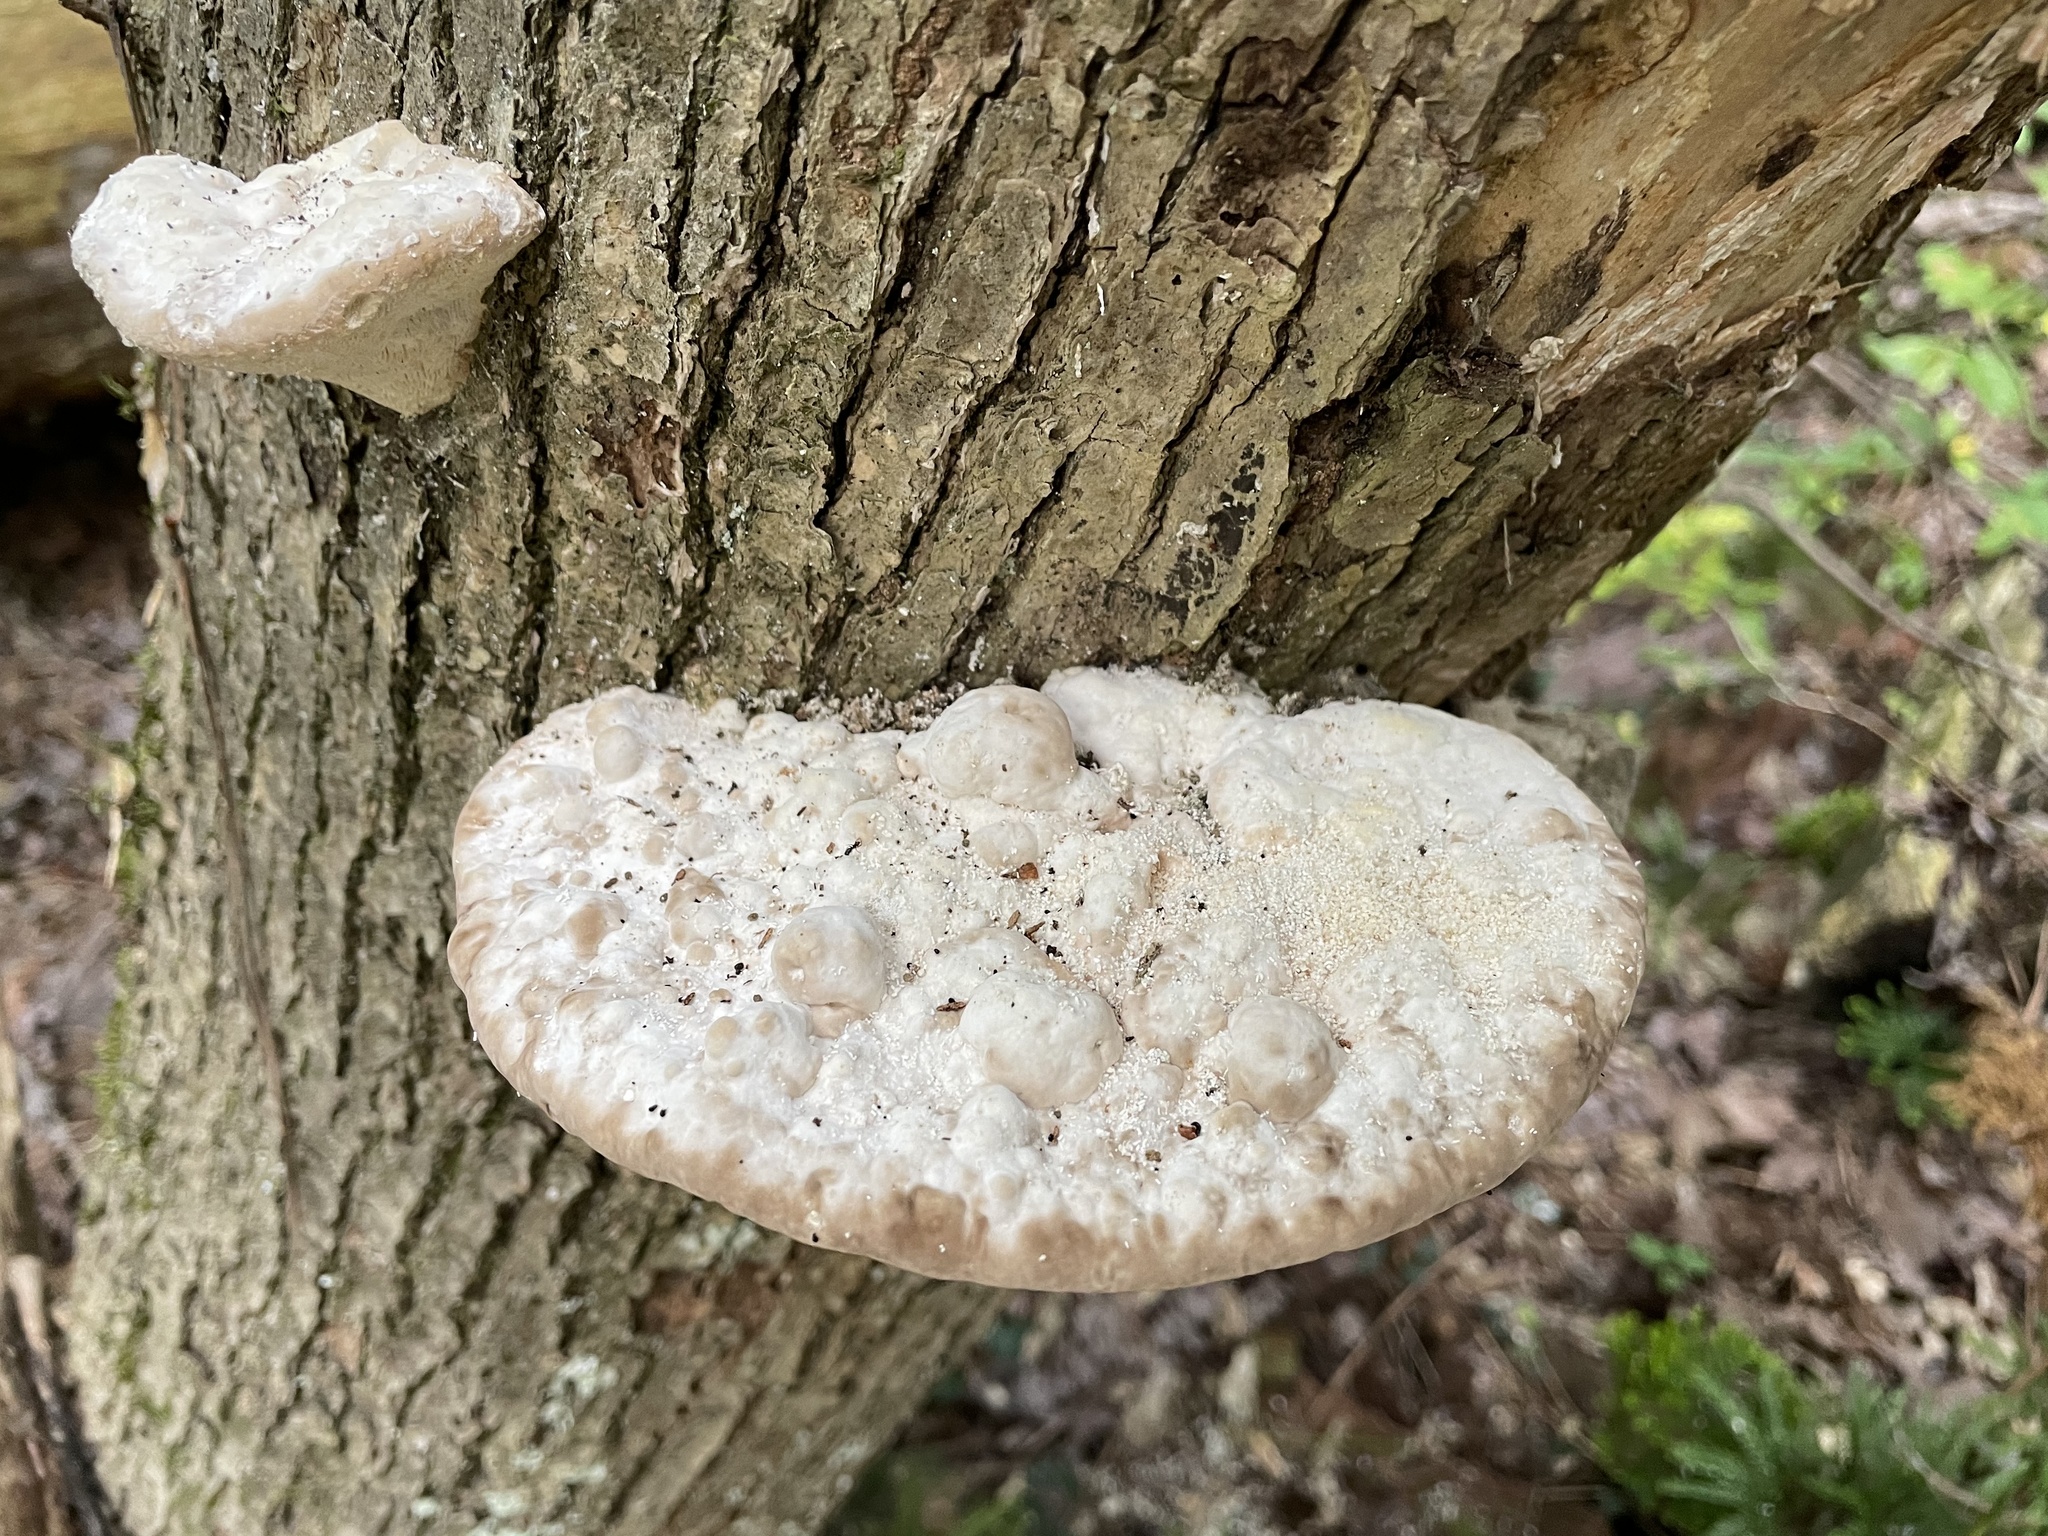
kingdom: Fungi
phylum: Basidiomycota
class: Agaricomycetes
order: Polyporales
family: Polyporaceae
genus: Trametes
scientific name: Trametes gibbosa
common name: Lumpy bracket
